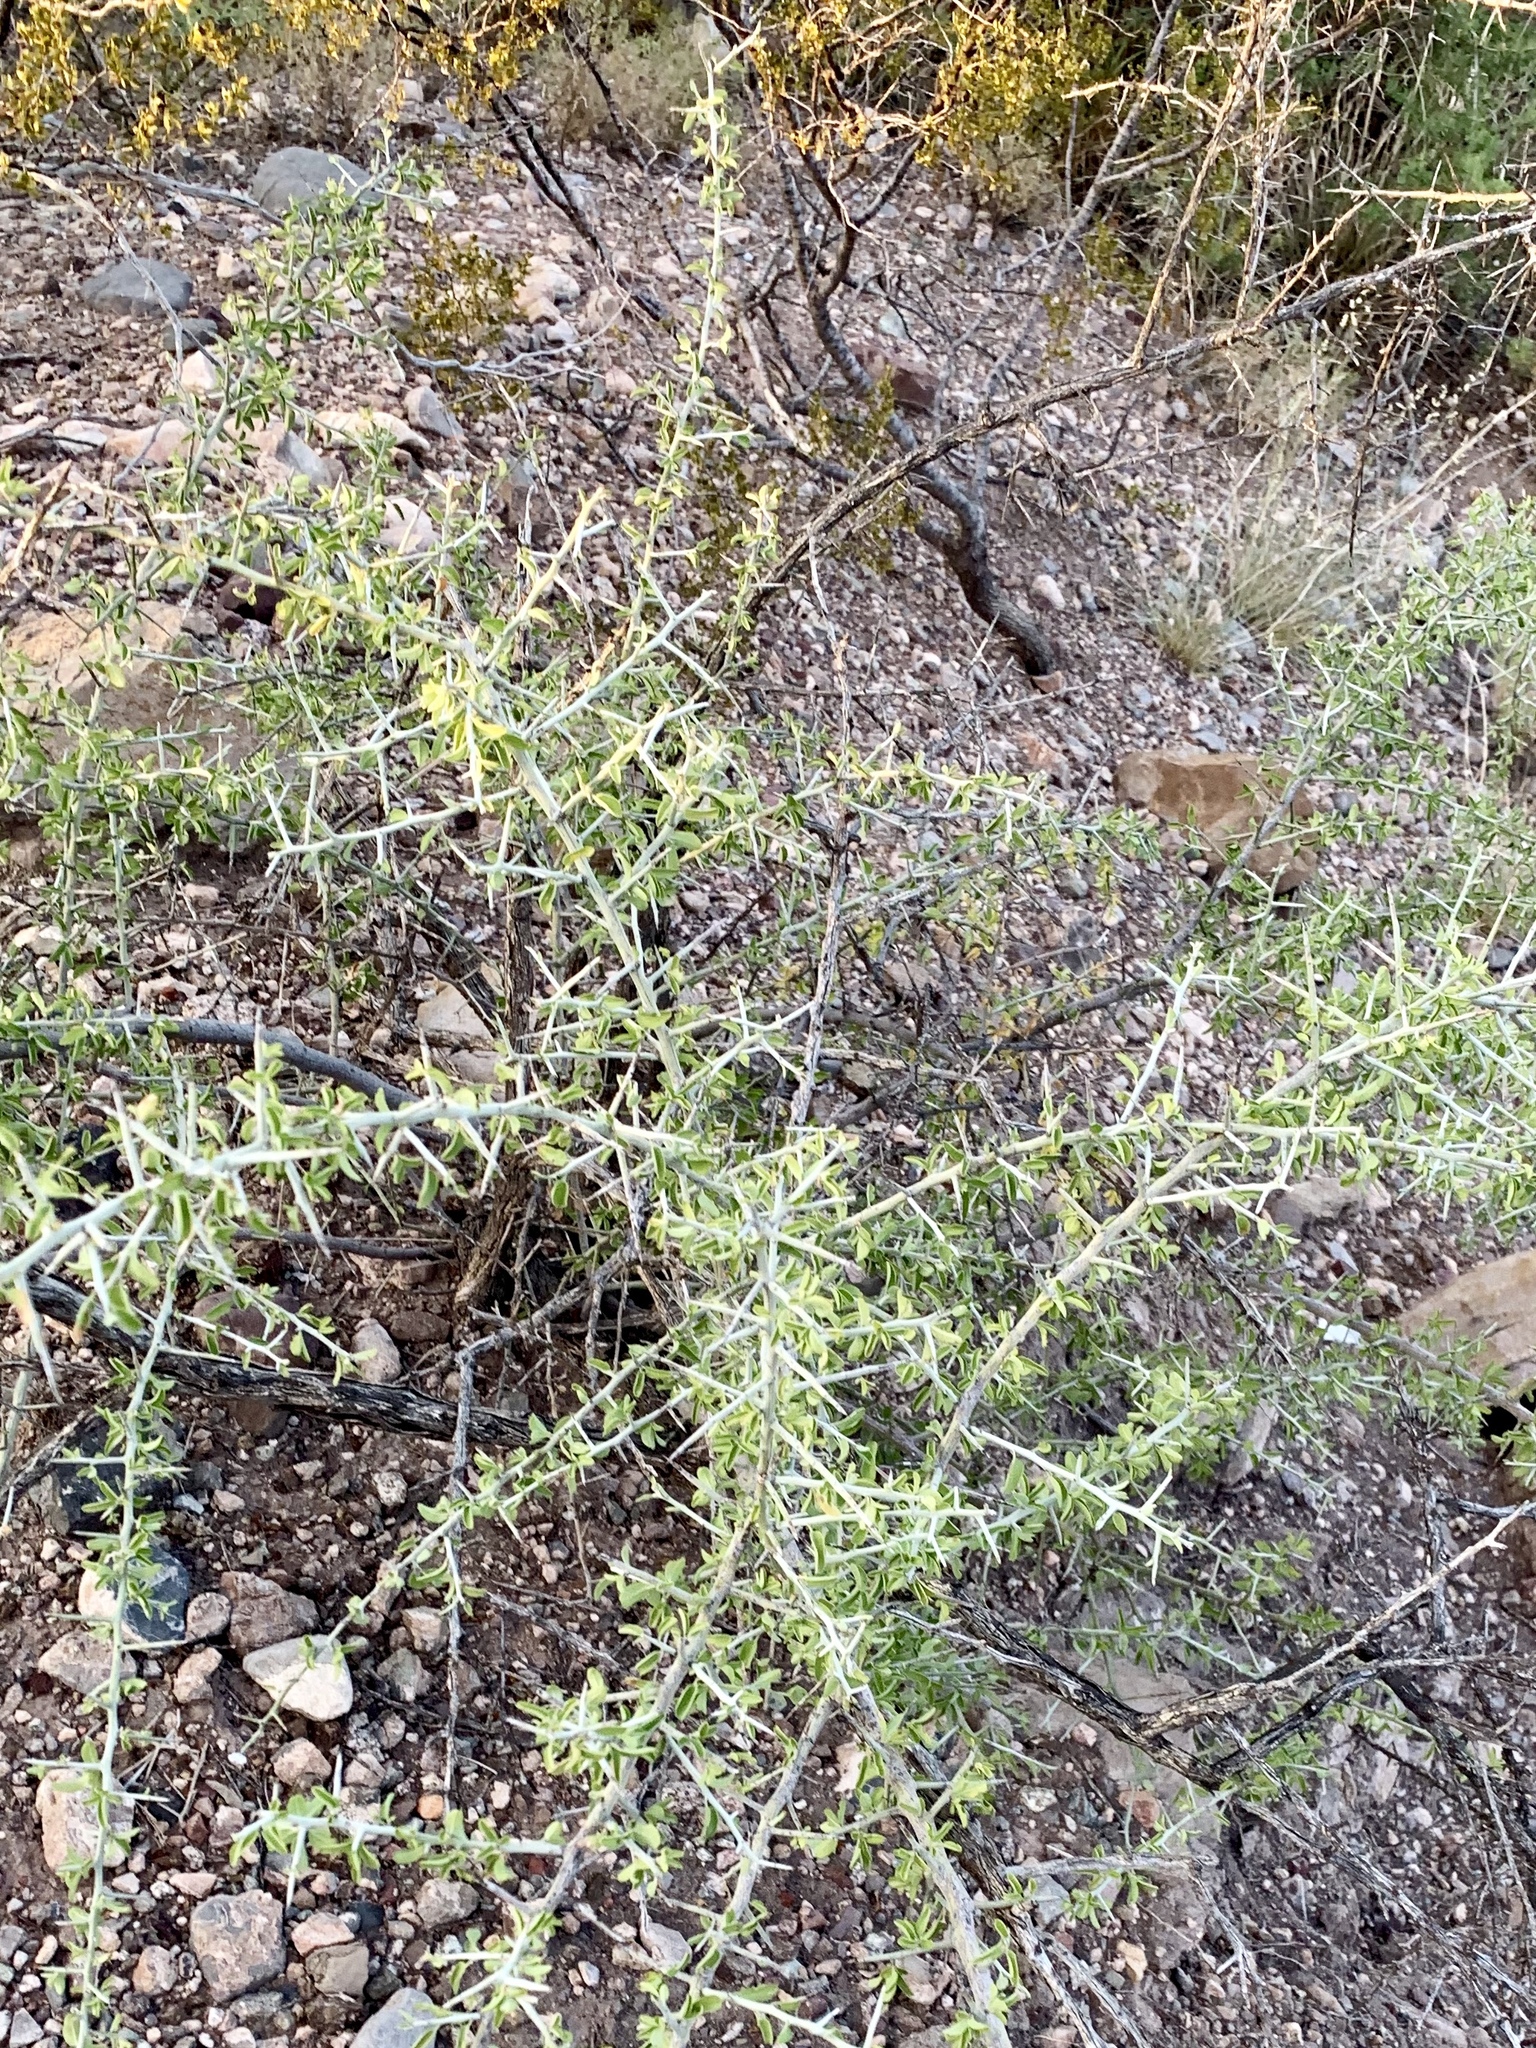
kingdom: Plantae
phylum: Tracheophyta
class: Magnoliopsida
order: Rosales
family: Rhamnaceae
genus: Sarcomphalus
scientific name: Sarcomphalus obtusifolius
